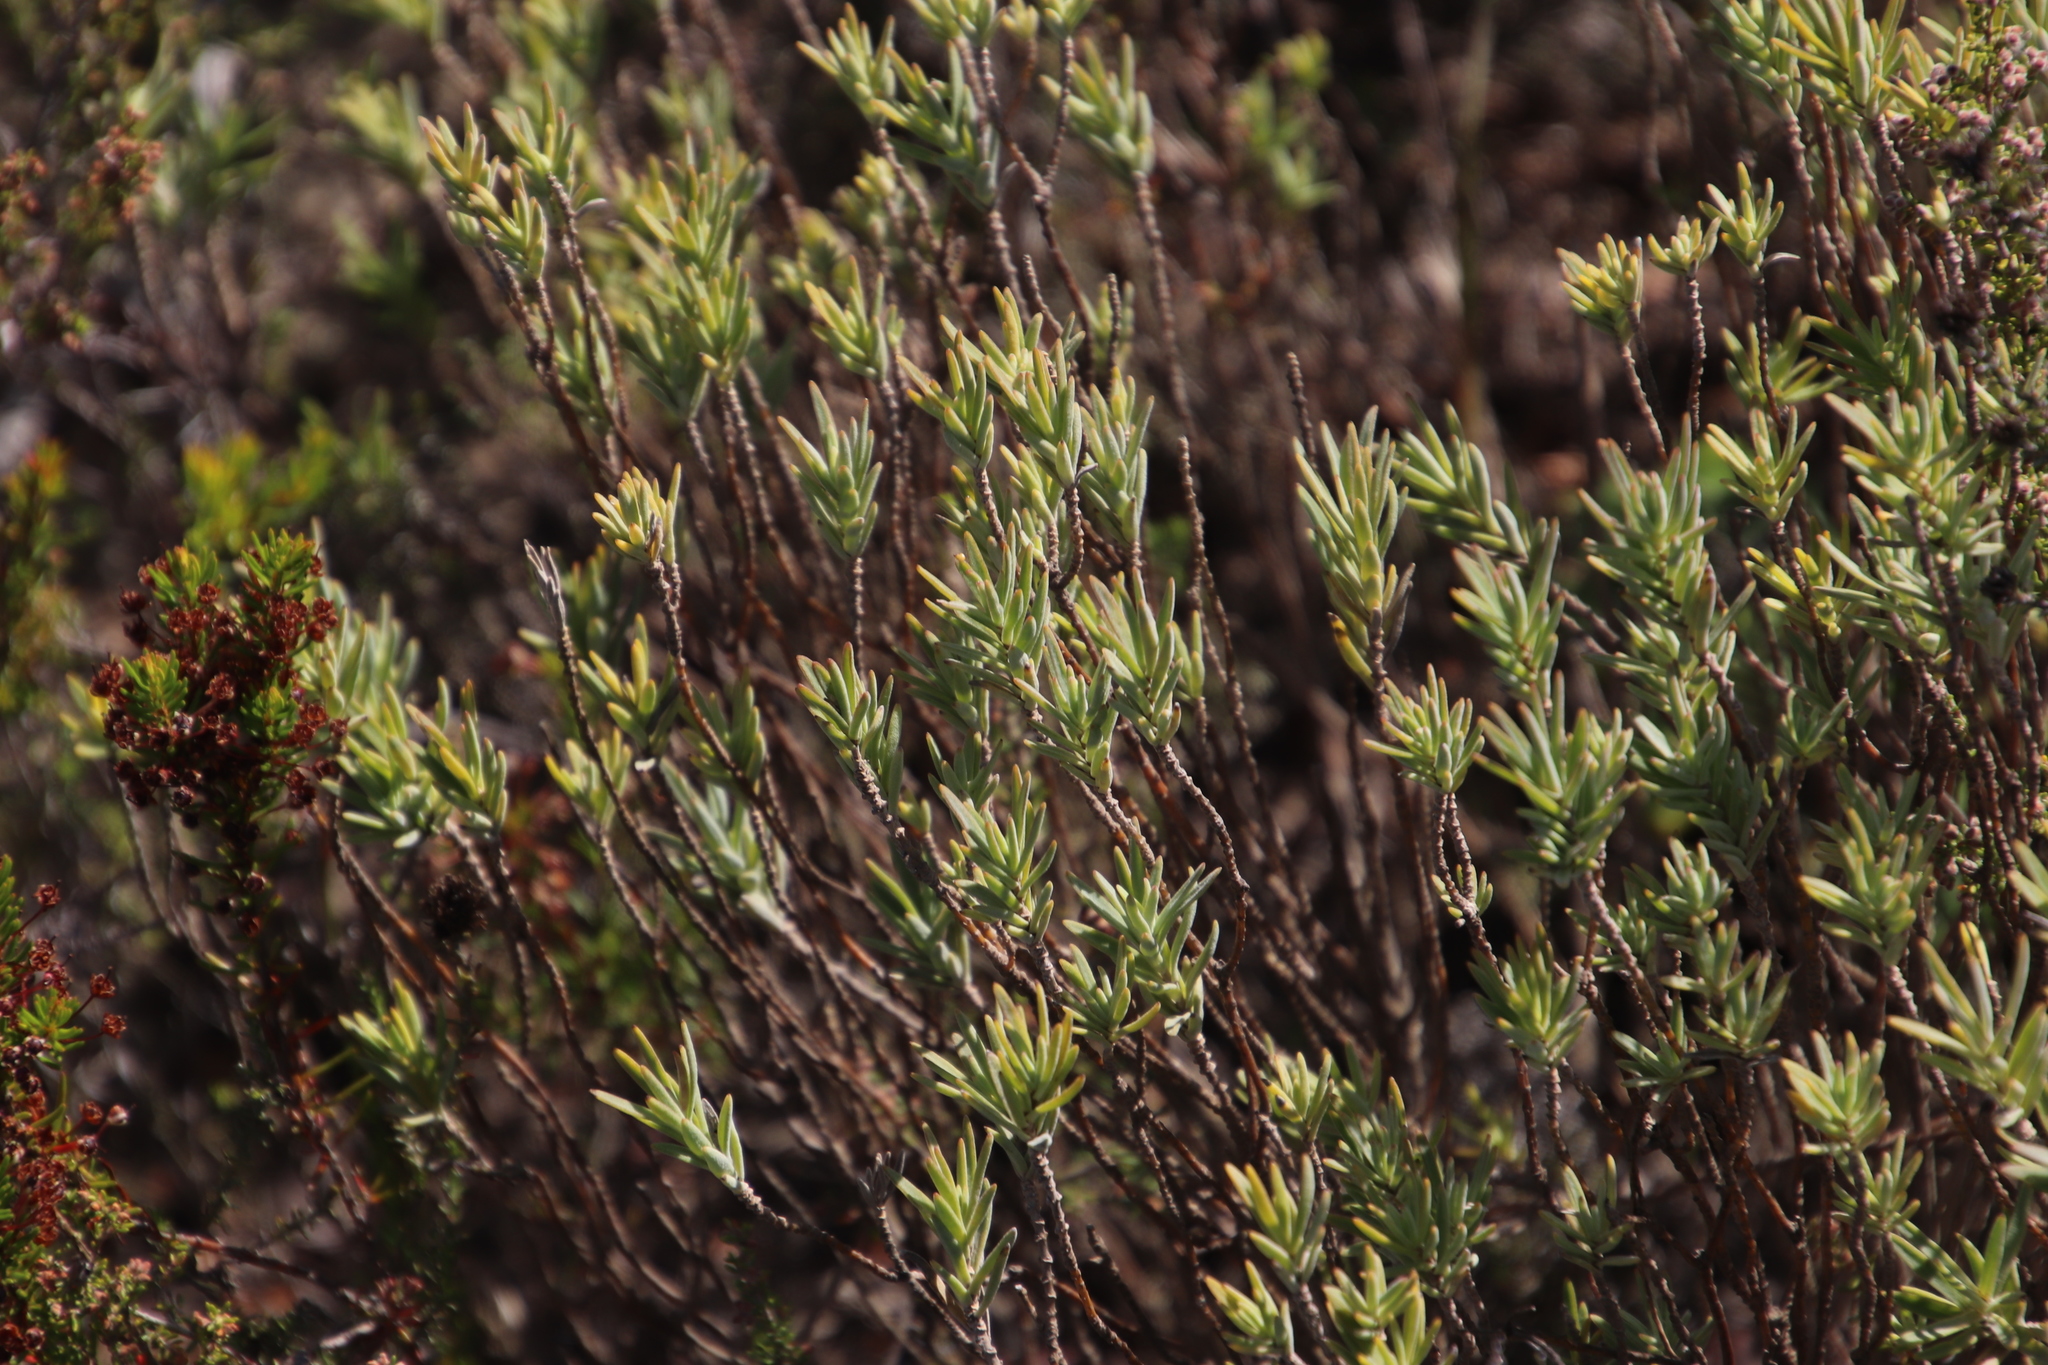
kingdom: Plantae
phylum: Tracheophyta
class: Magnoliopsida
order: Asterales
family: Asteraceae
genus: Pteronia
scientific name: Pteronia scabra
